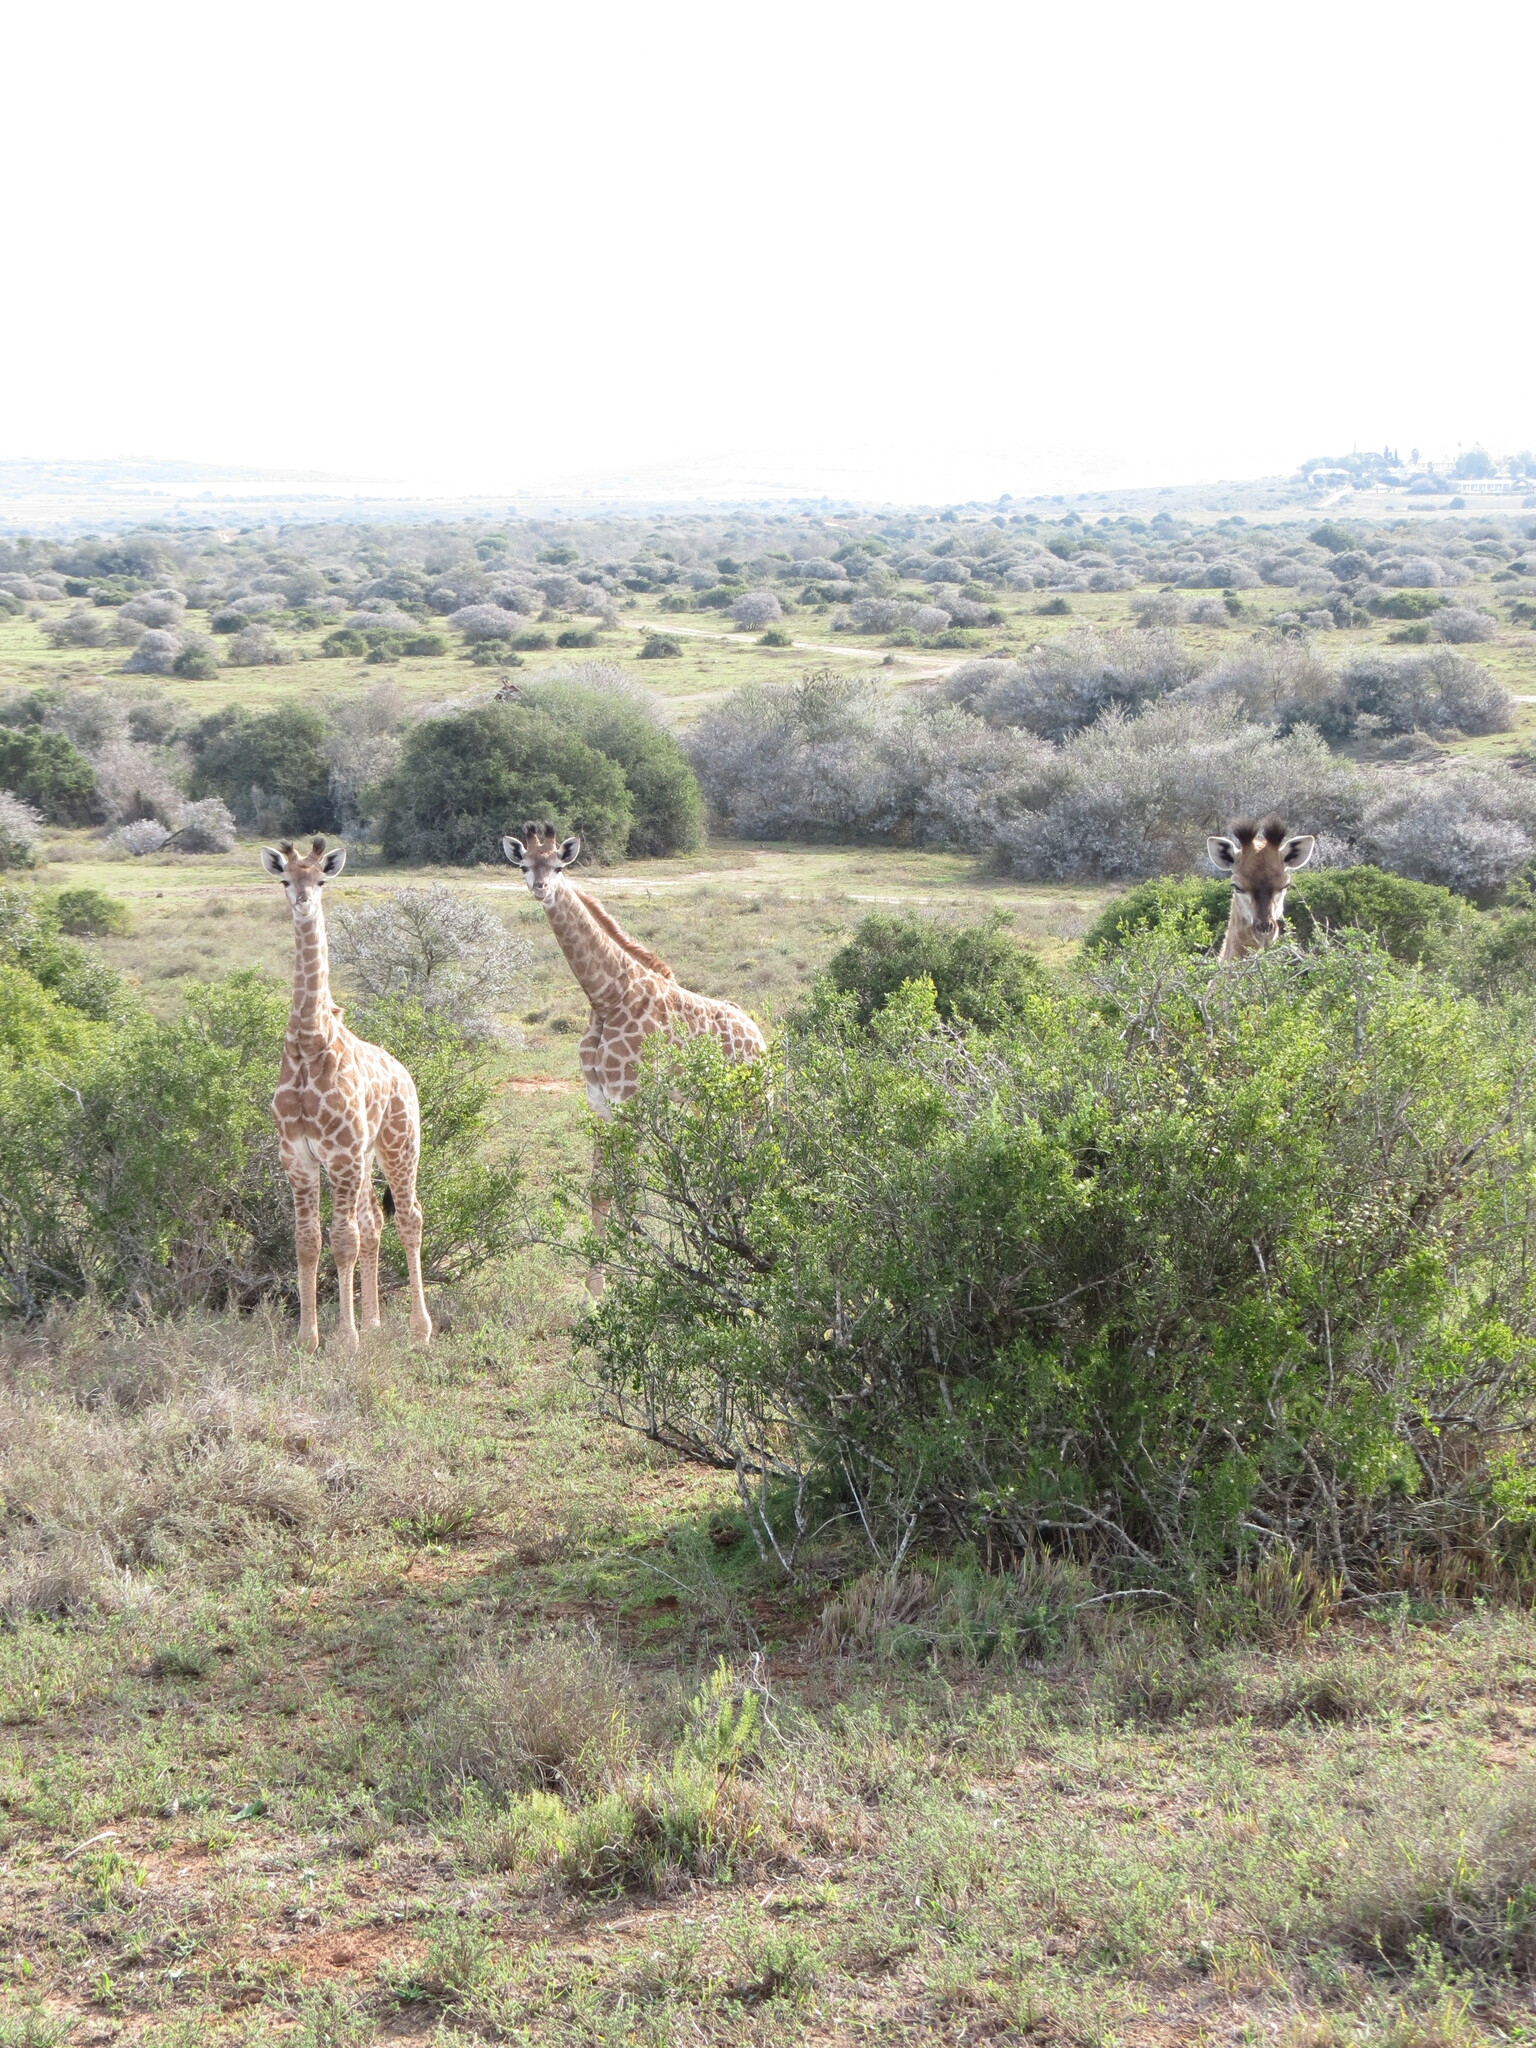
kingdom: Animalia
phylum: Chordata
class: Mammalia
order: Artiodactyla
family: Giraffidae
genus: Giraffa
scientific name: Giraffa giraffa
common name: Southern giraffe
